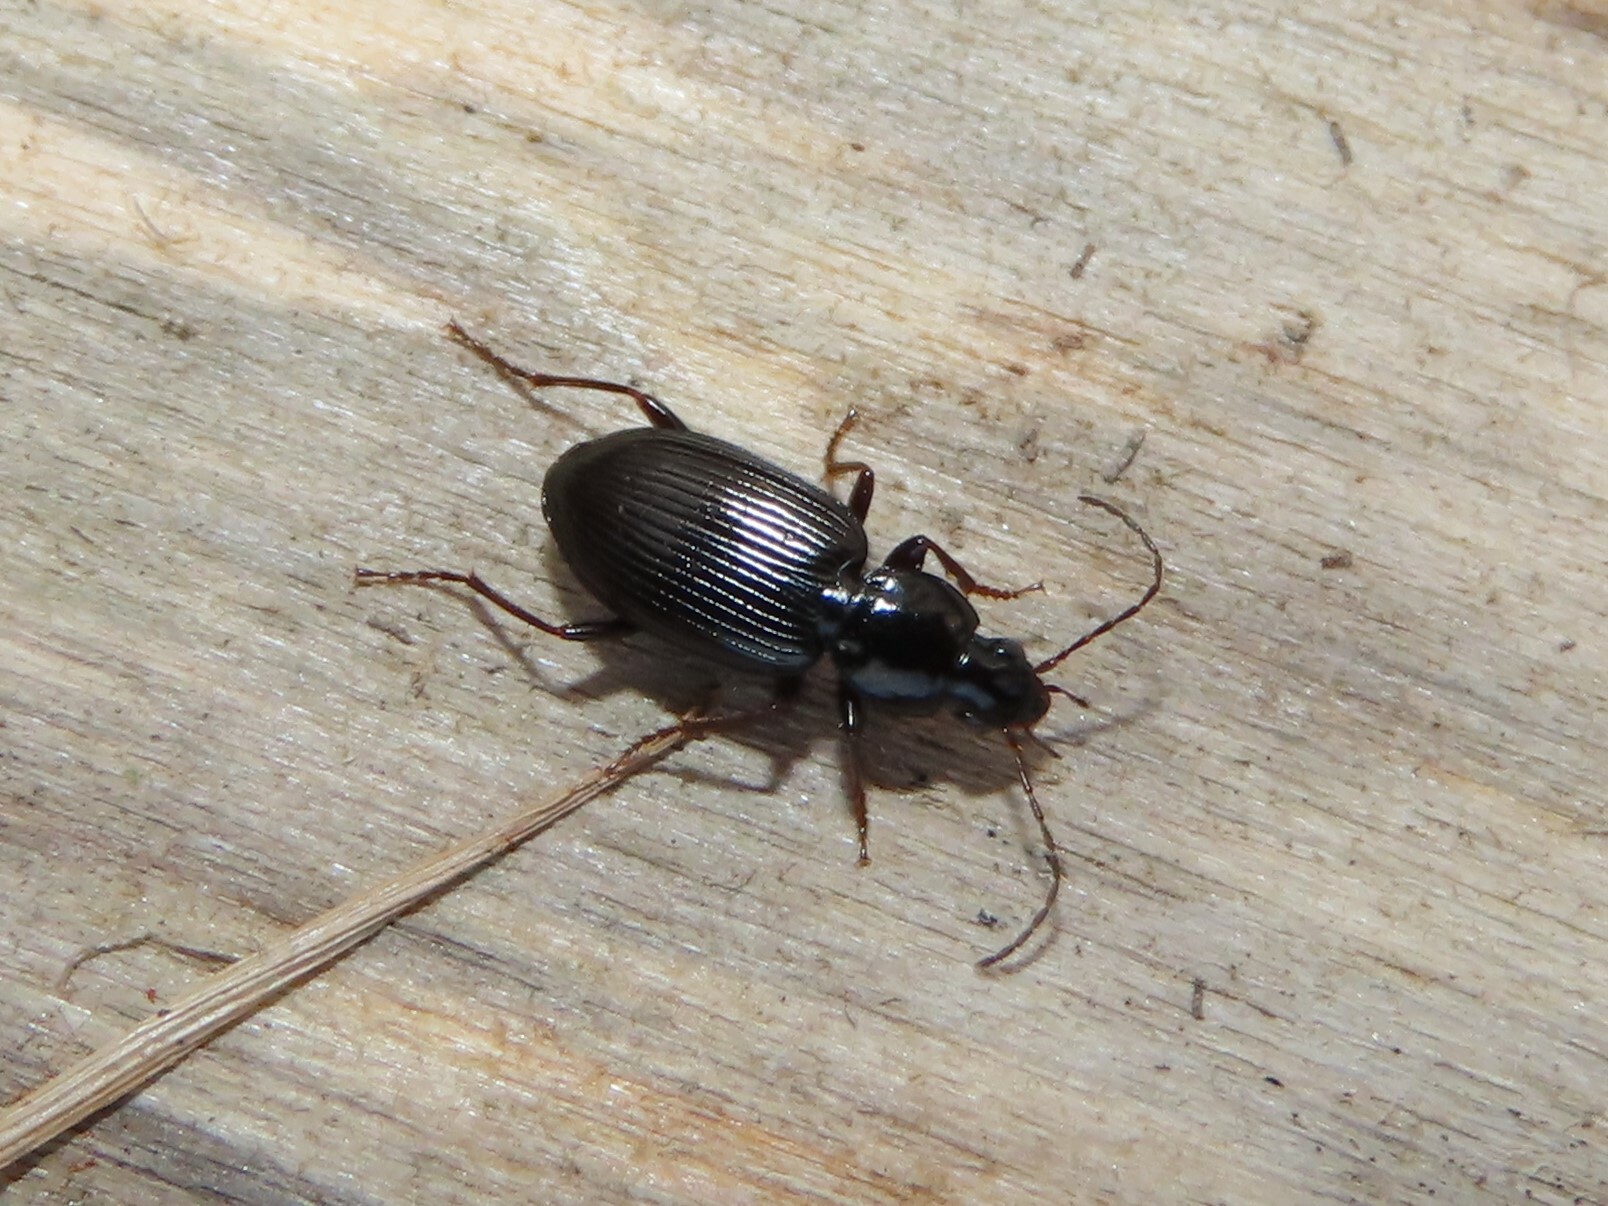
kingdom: Animalia
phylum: Arthropoda
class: Insecta
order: Coleoptera
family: Carabidae
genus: Agonum
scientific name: Agonum punctiforme
